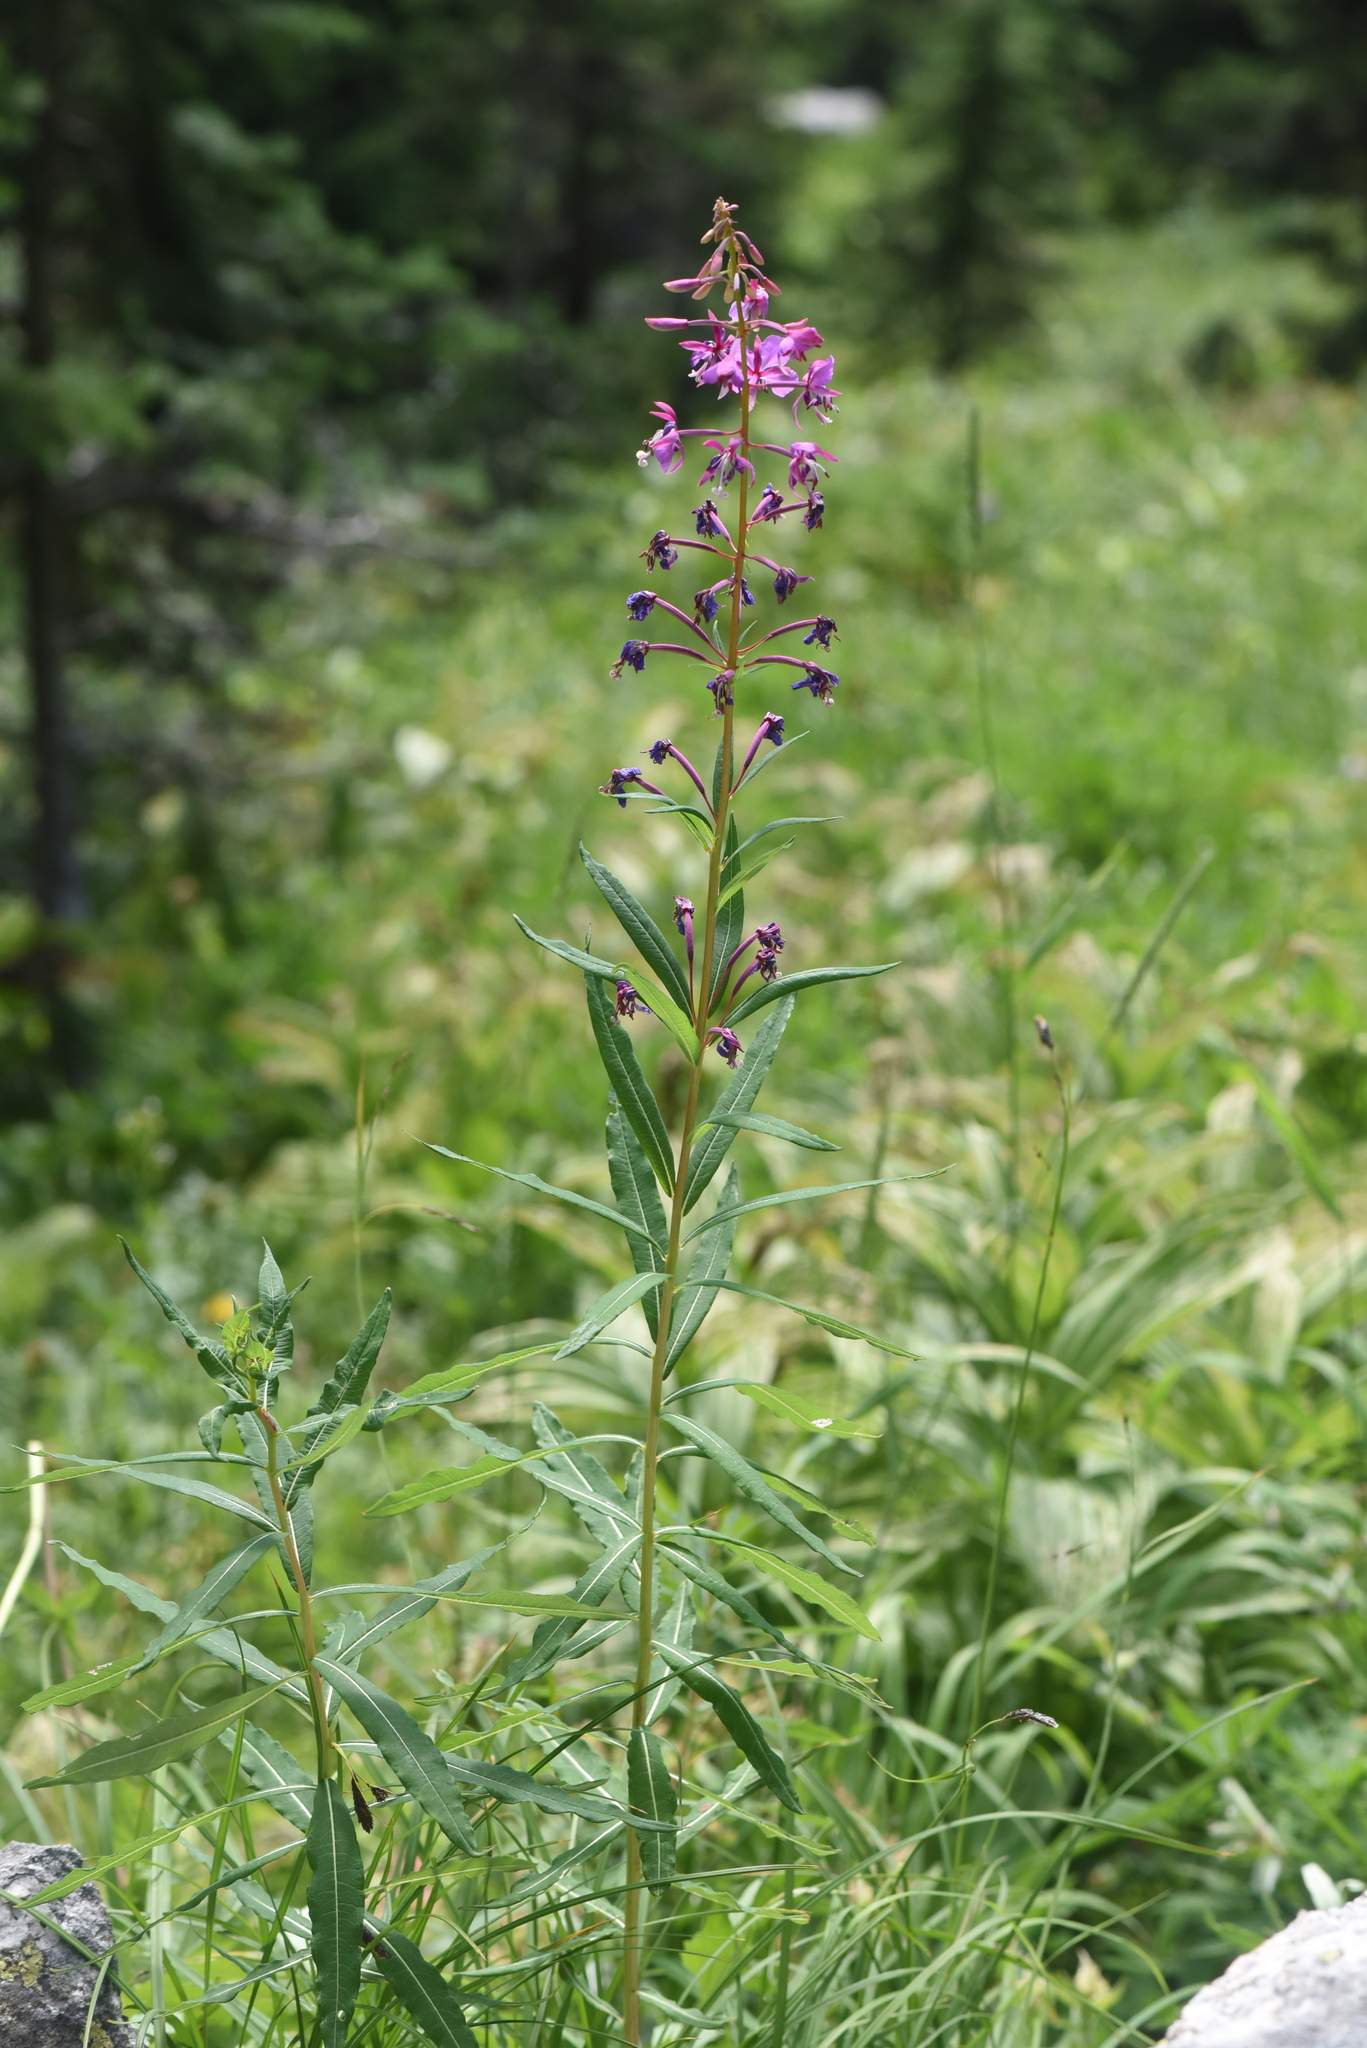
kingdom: Plantae
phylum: Tracheophyta
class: Magnoliopsida
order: Myrtales
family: Onagraceae
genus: Chamaenerion
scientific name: Chamaenerion angustifolium
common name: Fireweed
